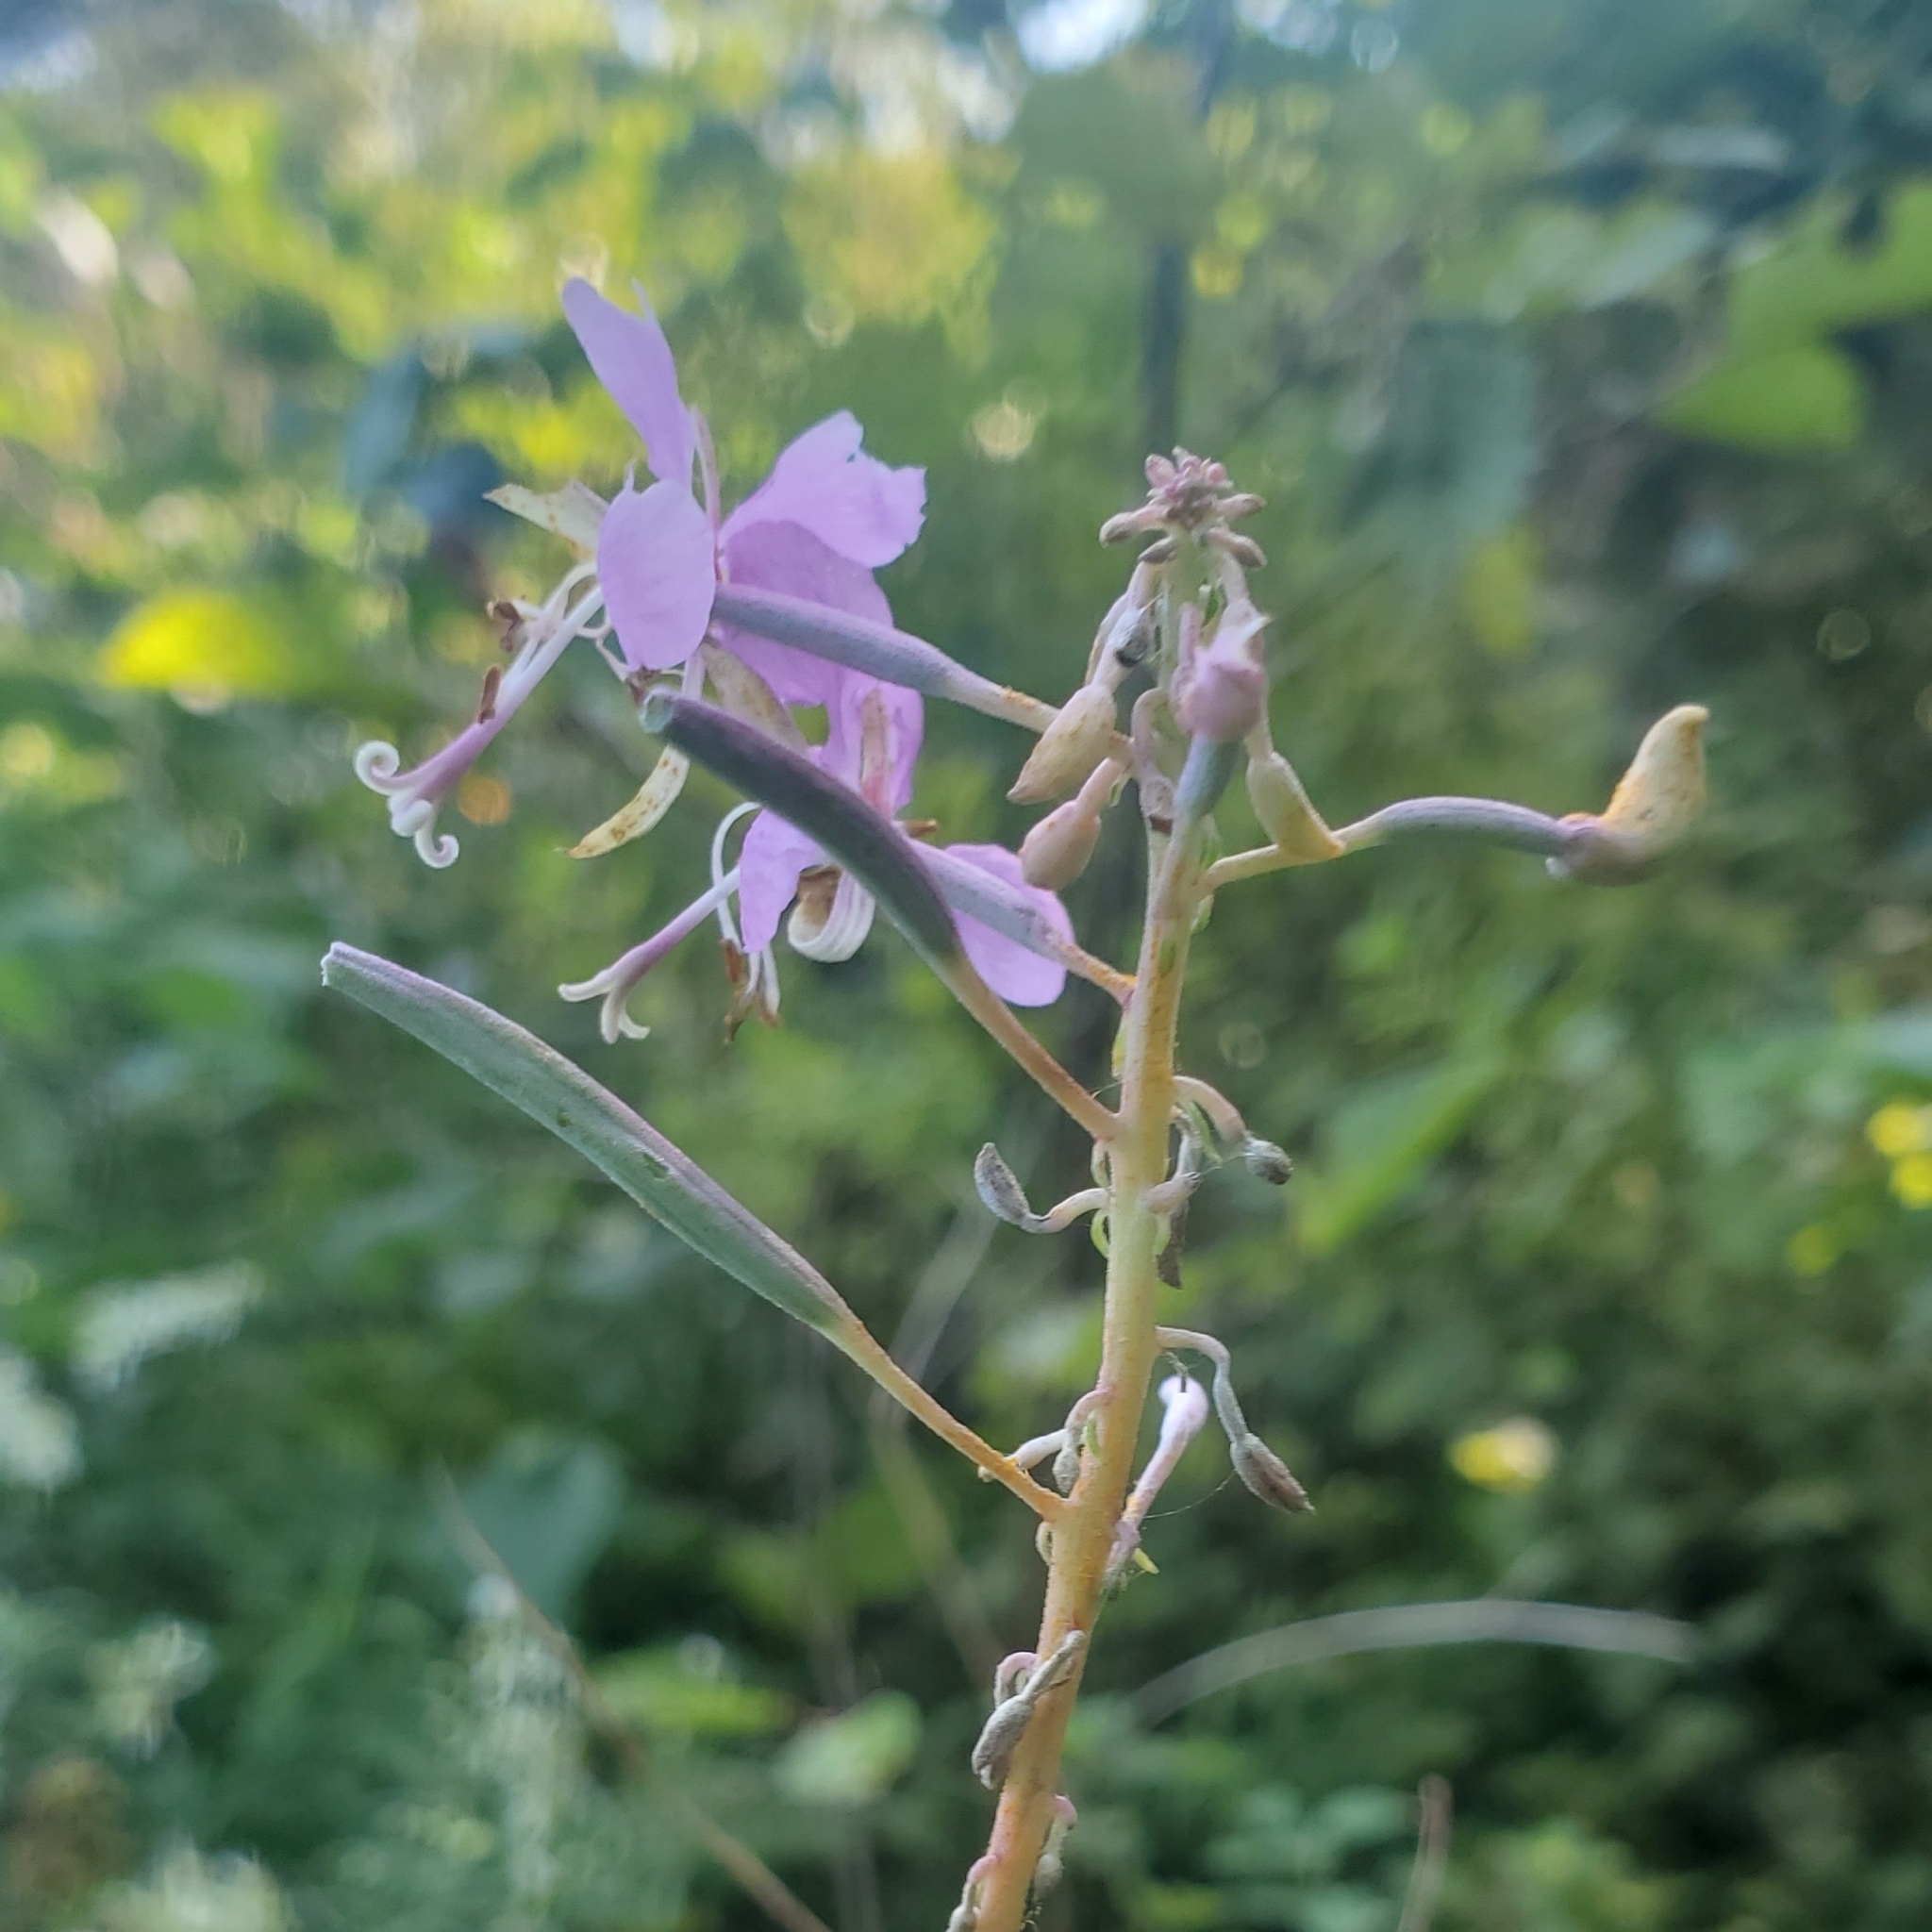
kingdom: Plantae
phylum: Tracheophyta
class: Magnoliopsida
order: Myrtales
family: Onagraceae
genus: Chamaenerion
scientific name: Chamaenerion angustifolium
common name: Fireweed
